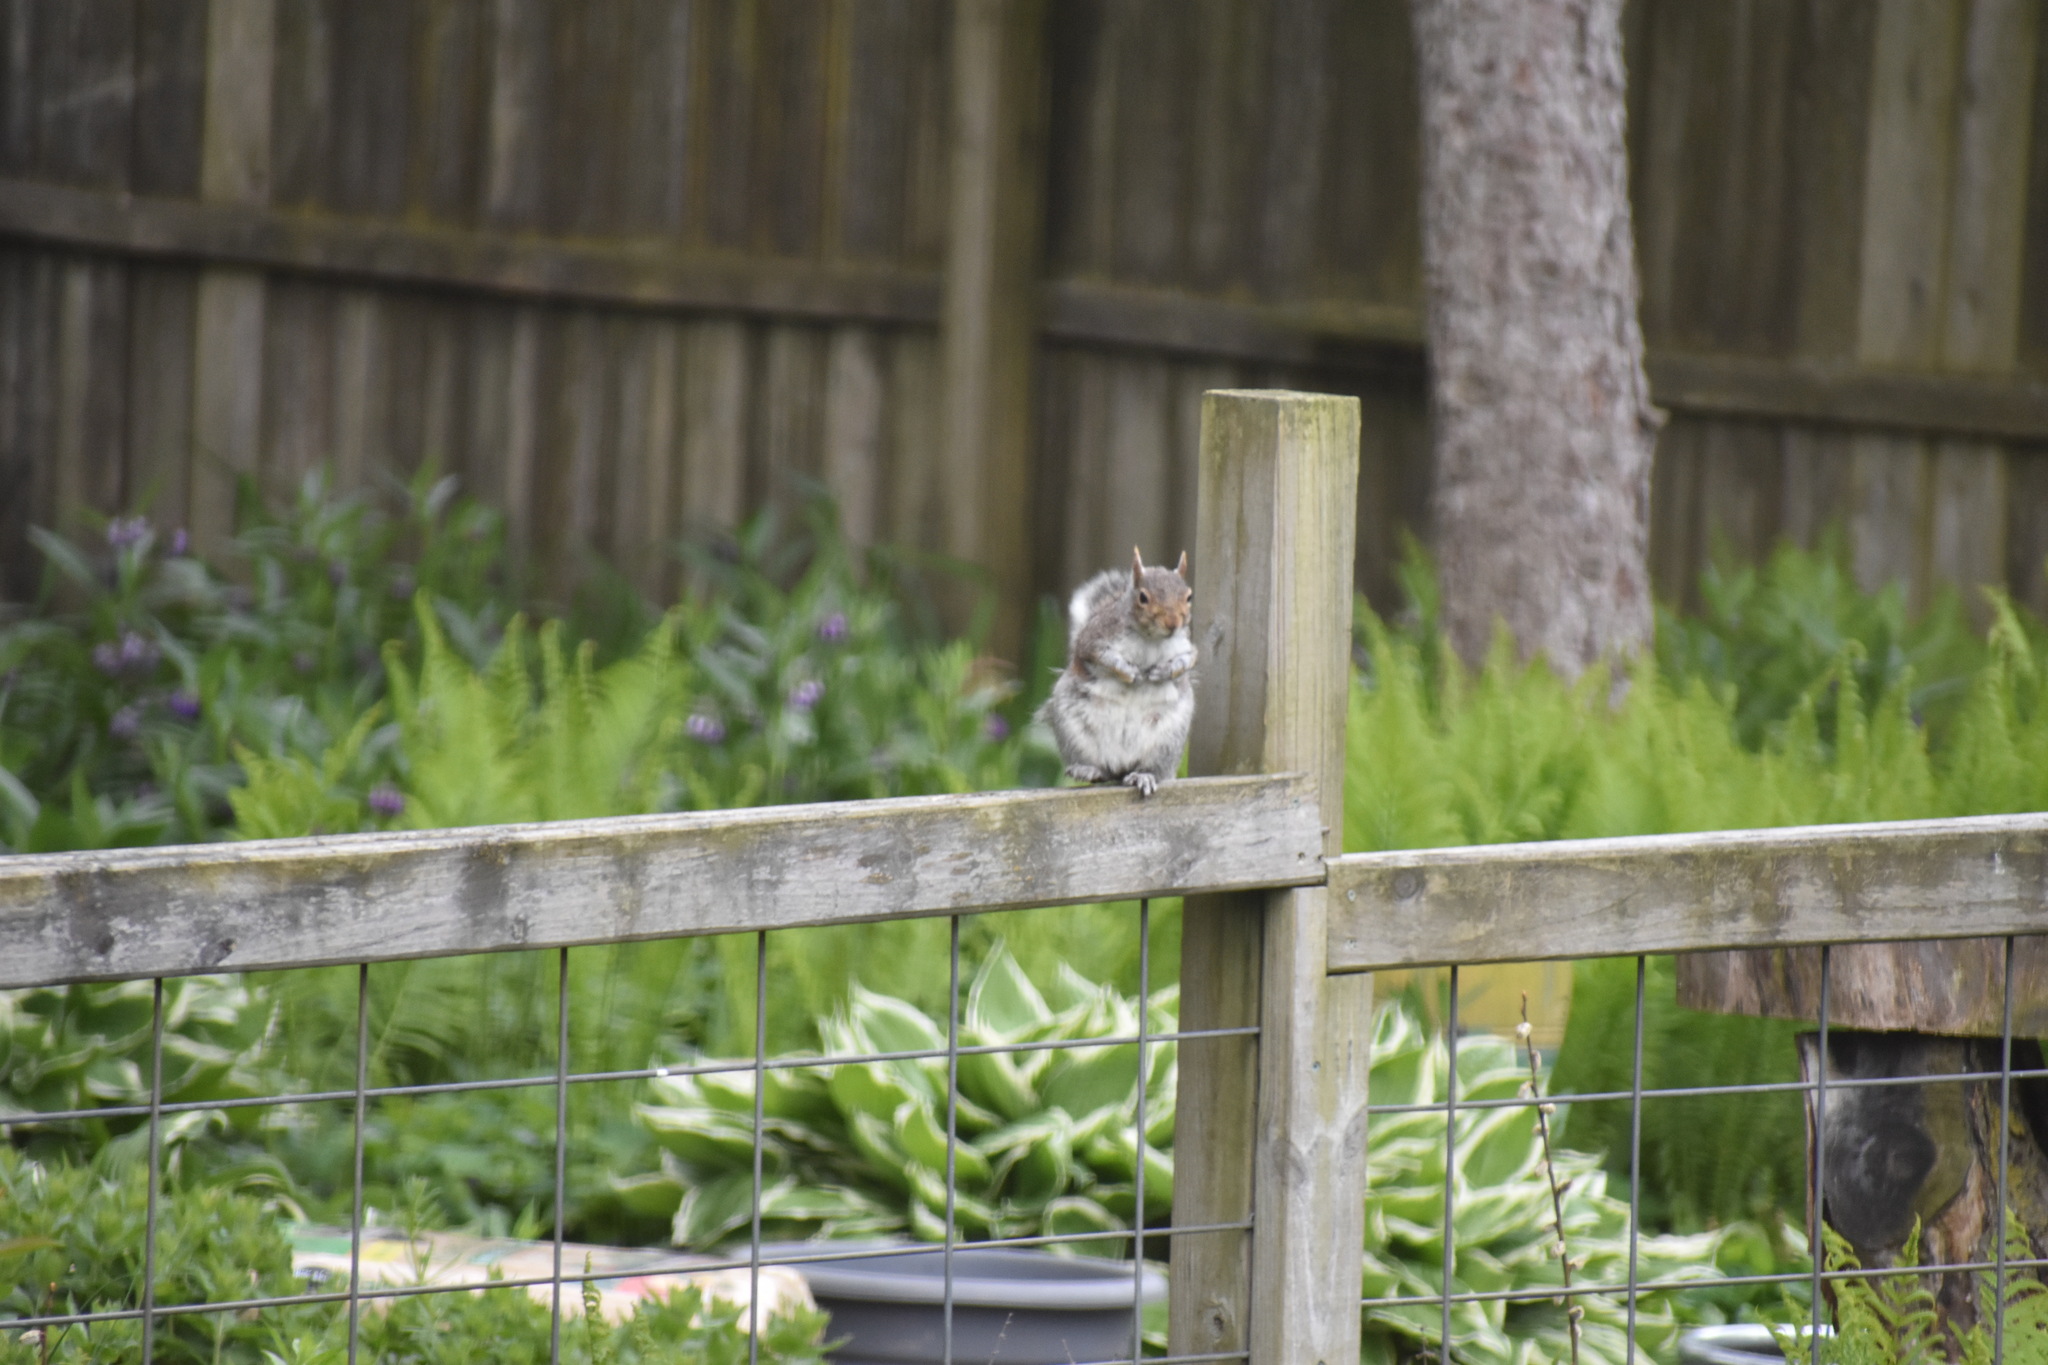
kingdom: Animalia
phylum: Chordata
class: Mammalia
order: Rodentia
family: Sciuridae
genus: Sciurus
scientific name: Sciurus carolinensis
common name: Eastern gray squirrel
